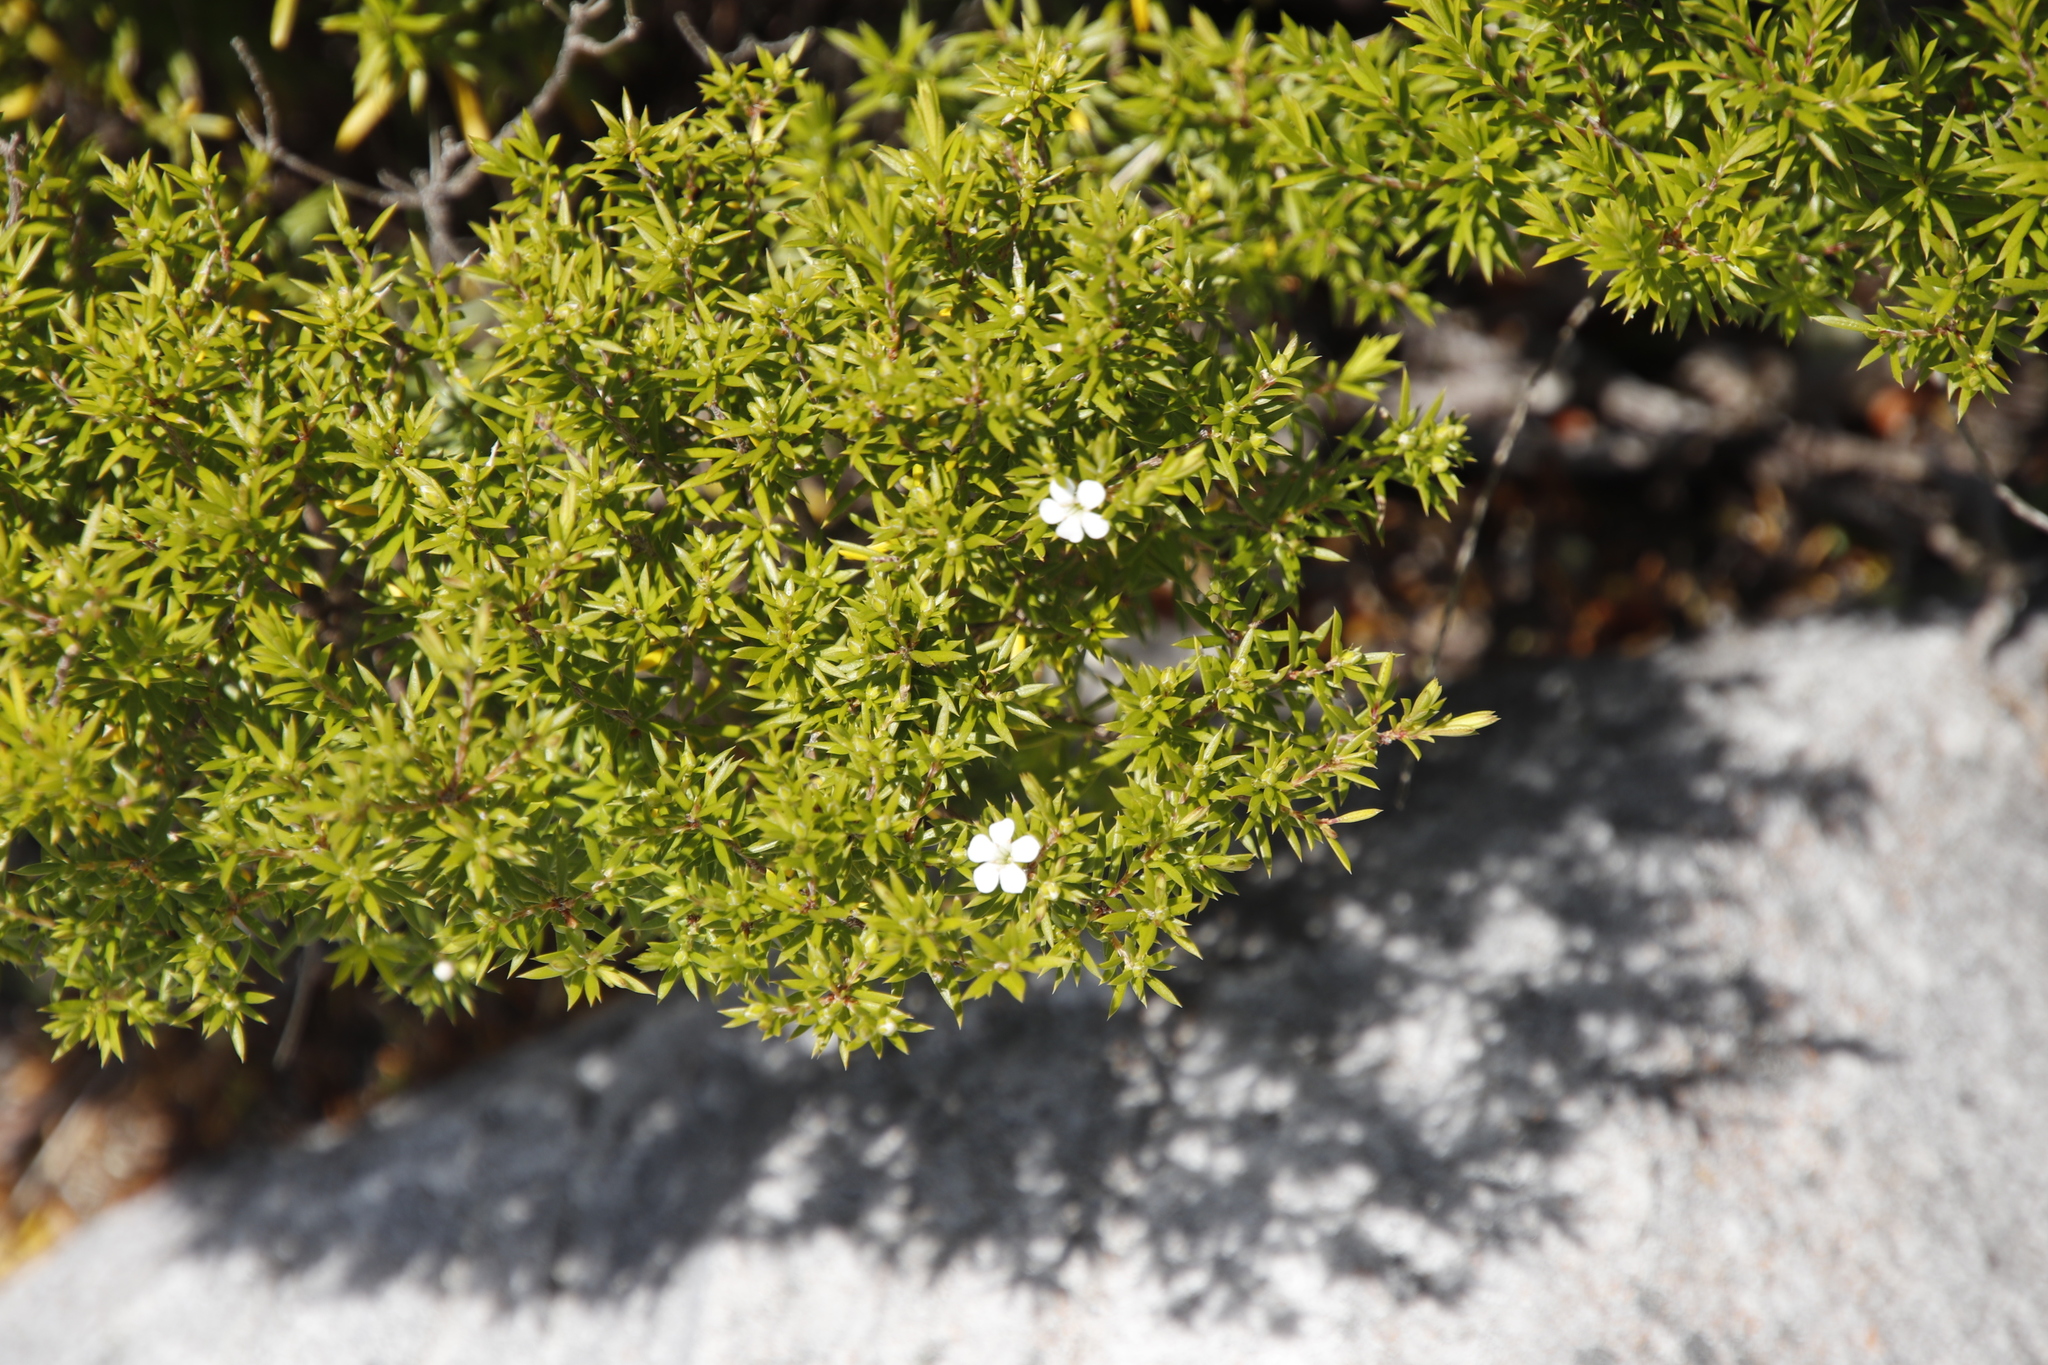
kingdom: Plantae
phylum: Tracheophyta
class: Magnoliopsida
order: Sapindales
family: Rutaceae
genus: Coleonema
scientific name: Coleonema album
